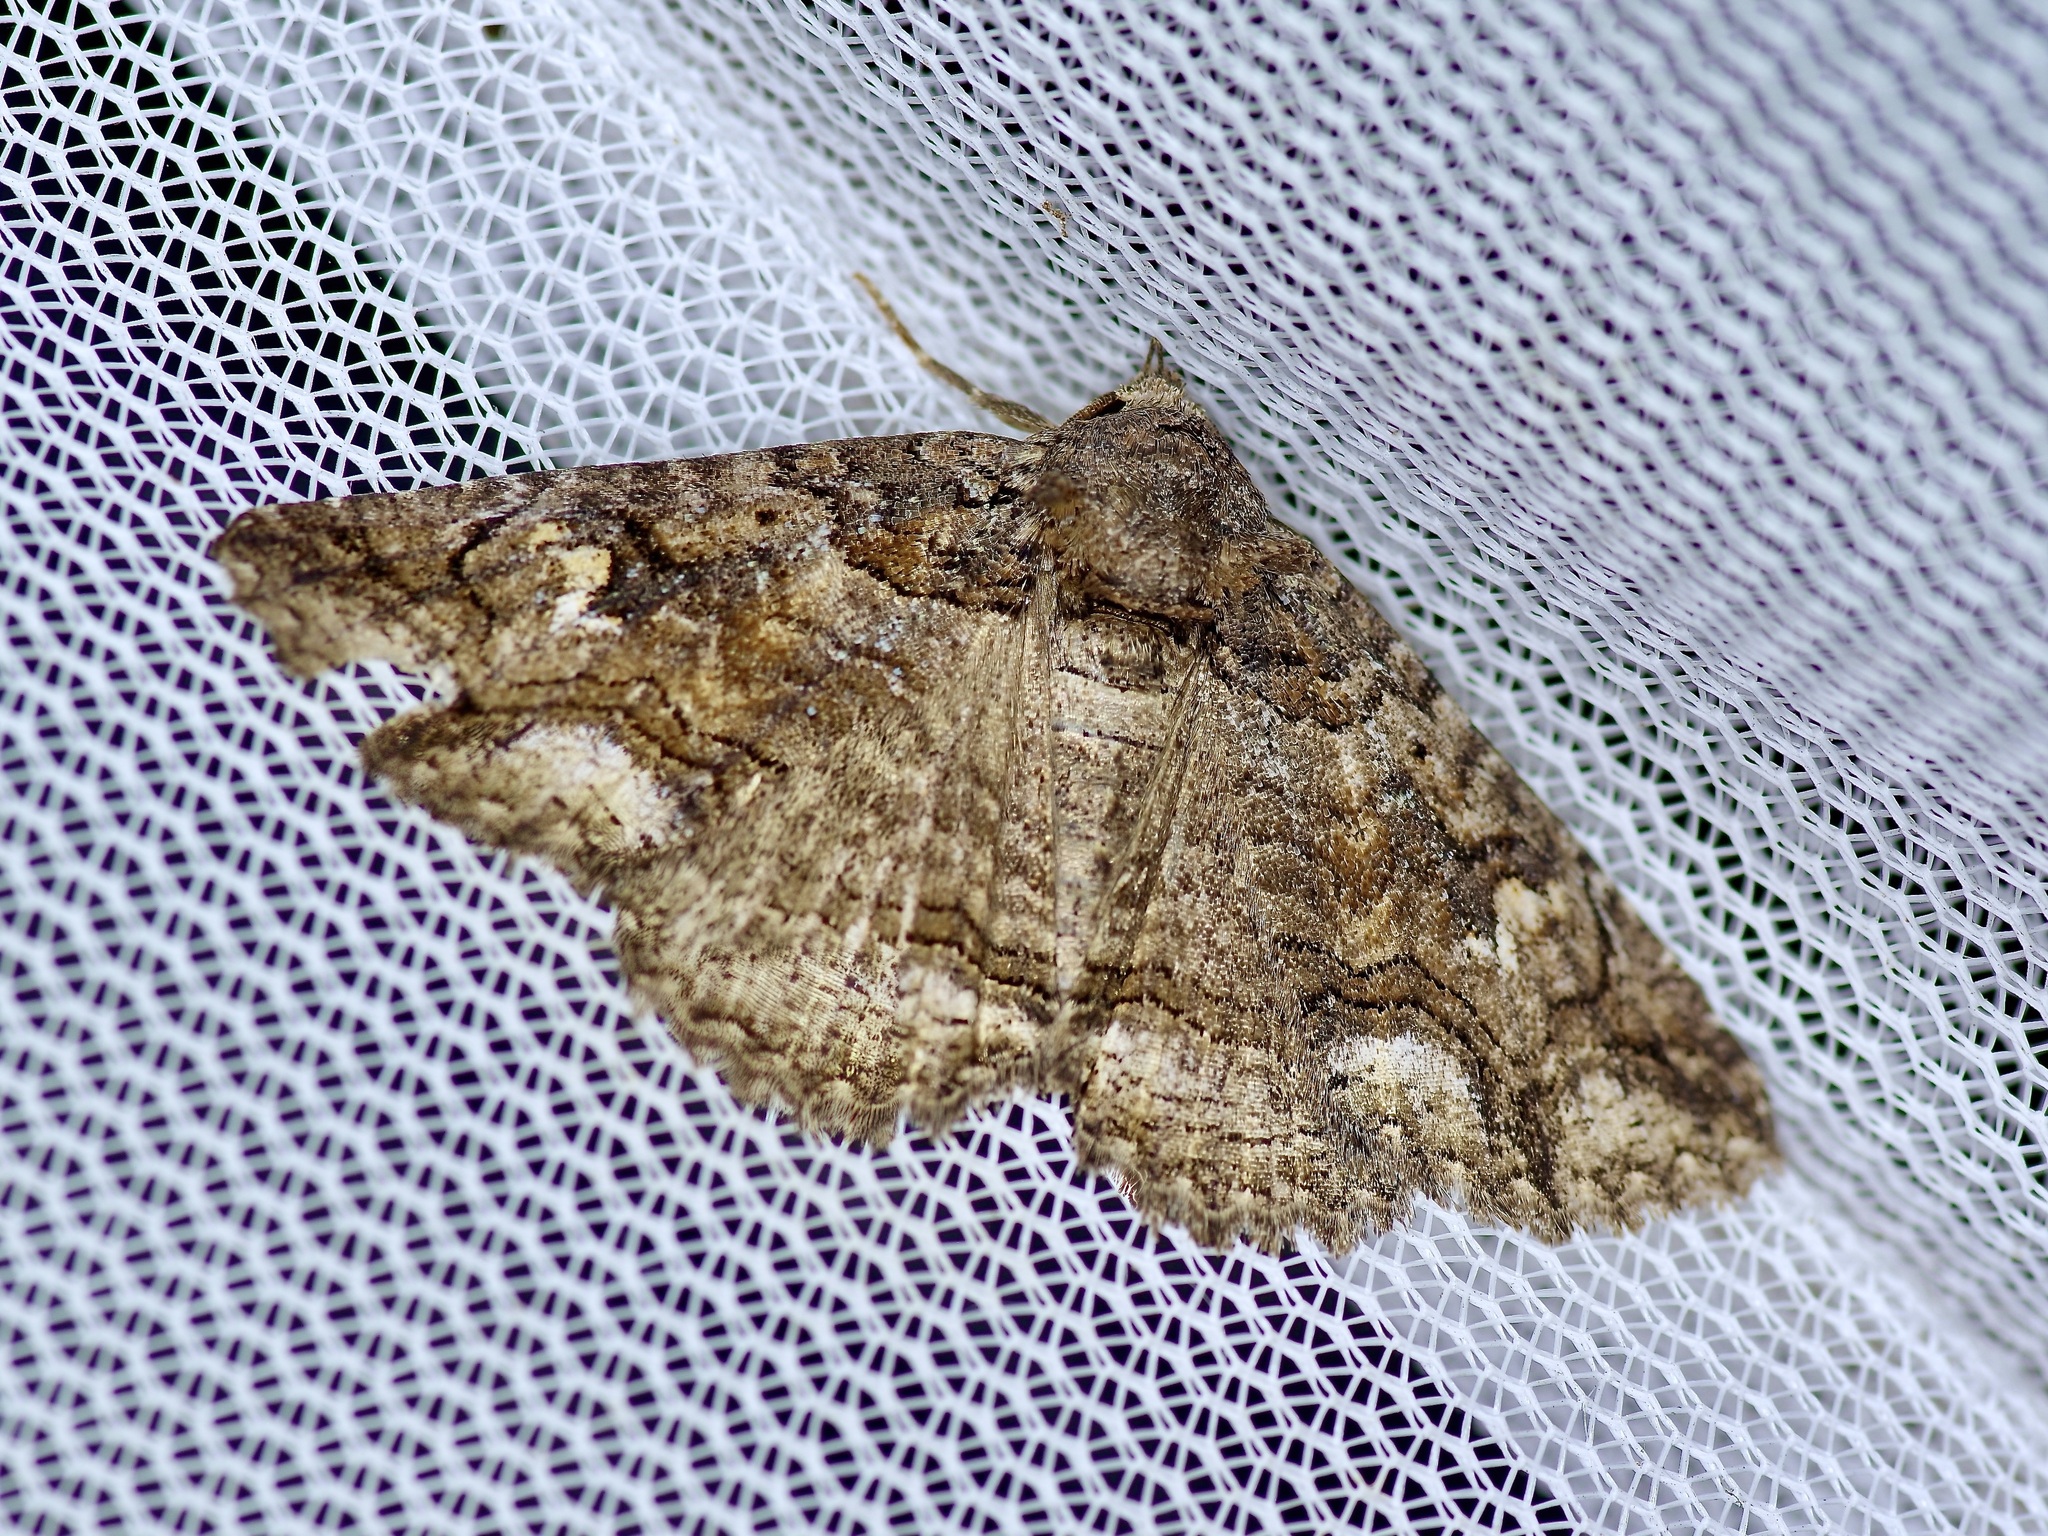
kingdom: Animalia
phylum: Arthropoda
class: Insecta
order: Lepidoptera
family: Erebidae
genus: Zale
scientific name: Zale edusina
